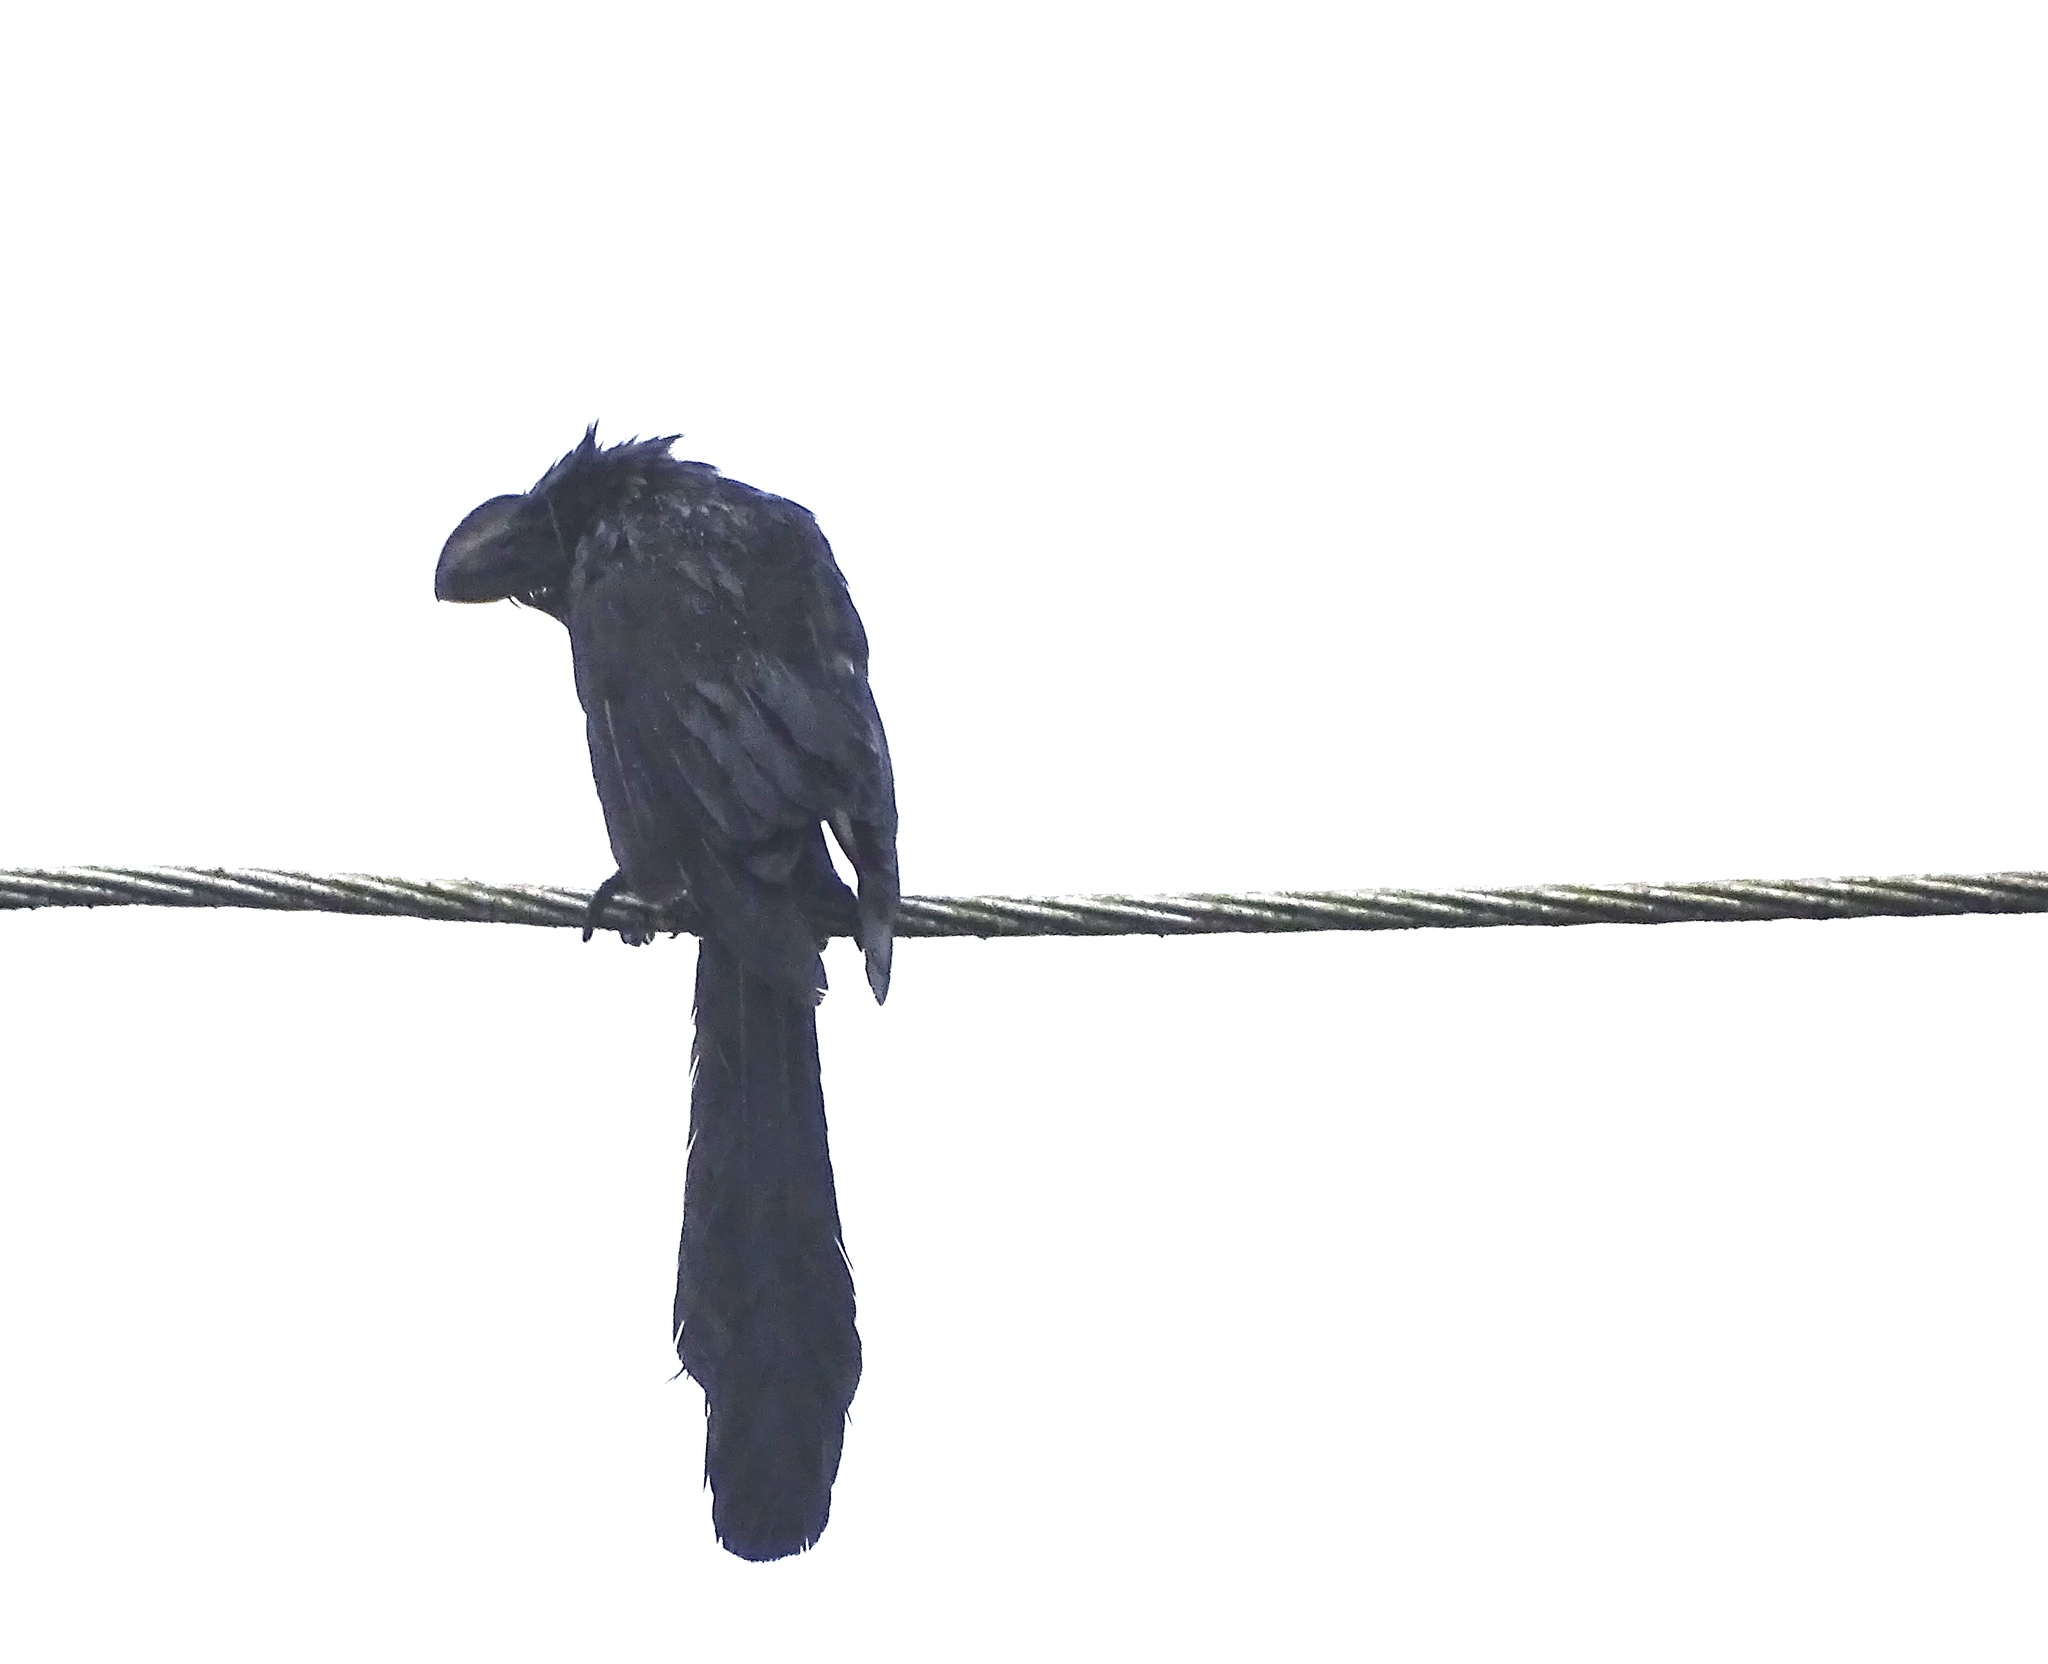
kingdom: Animalia
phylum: Chordata
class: Aves
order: Cuculiformes
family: Cuculidae
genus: Crotophaga
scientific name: Crotophaga ani
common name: Smooth-billed ani
